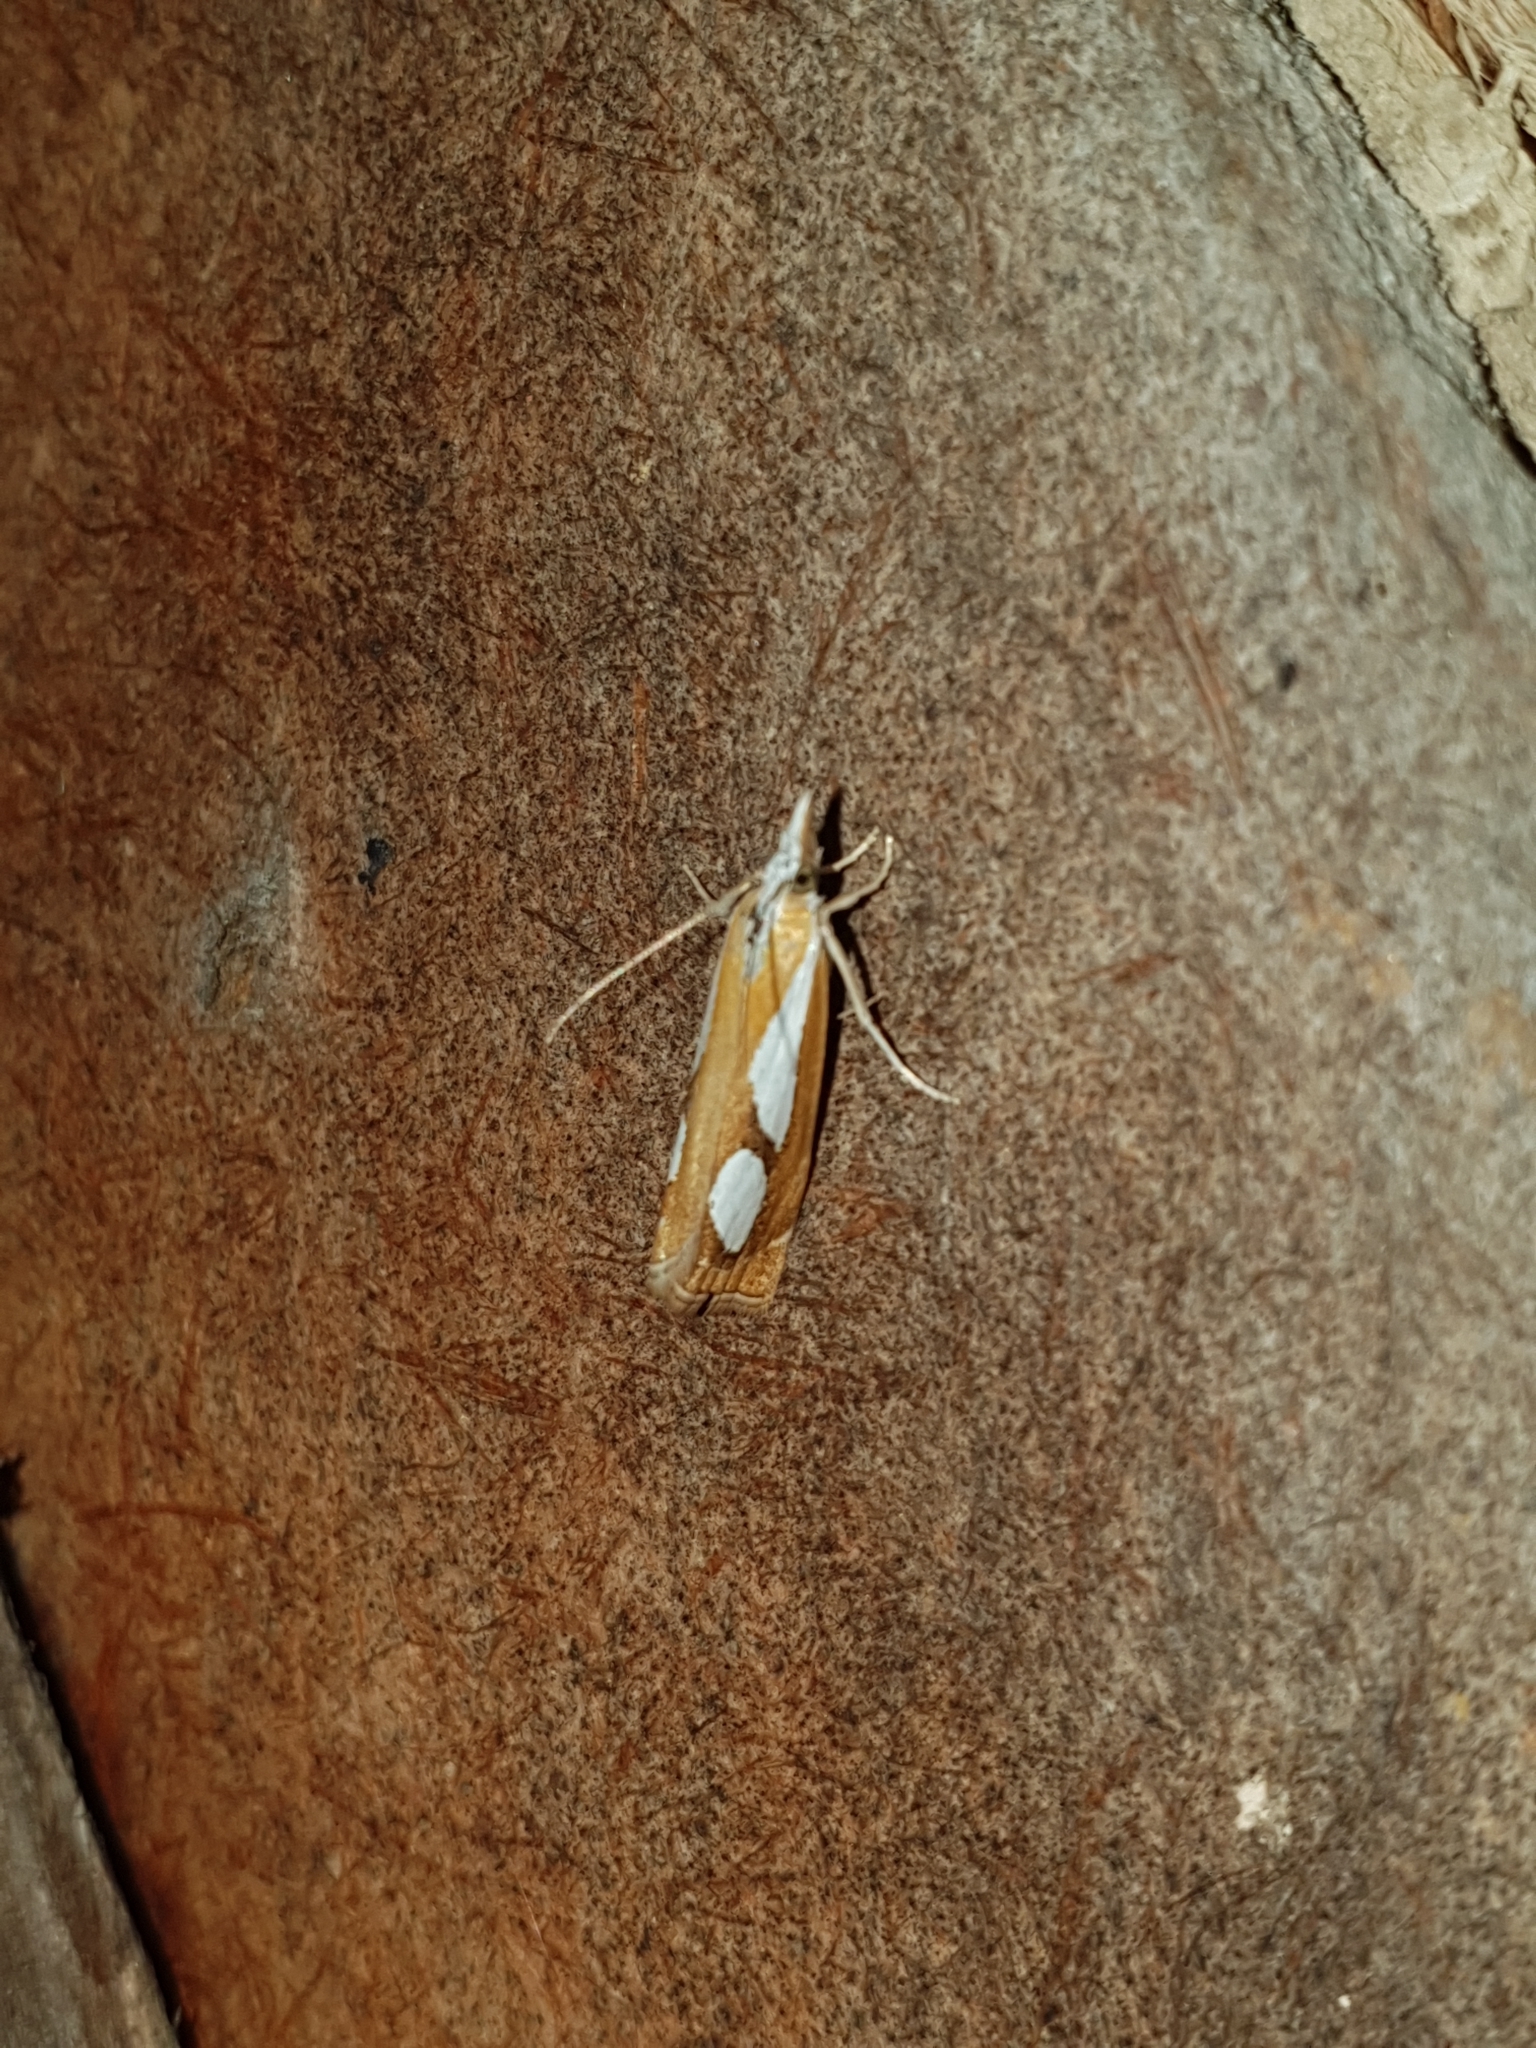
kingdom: Animalia
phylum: Arthropoda
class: Insecta
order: Lepidoptera
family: Crambidae
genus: Catoptria
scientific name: Catoptria pinella
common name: Pearl grass-veneer
